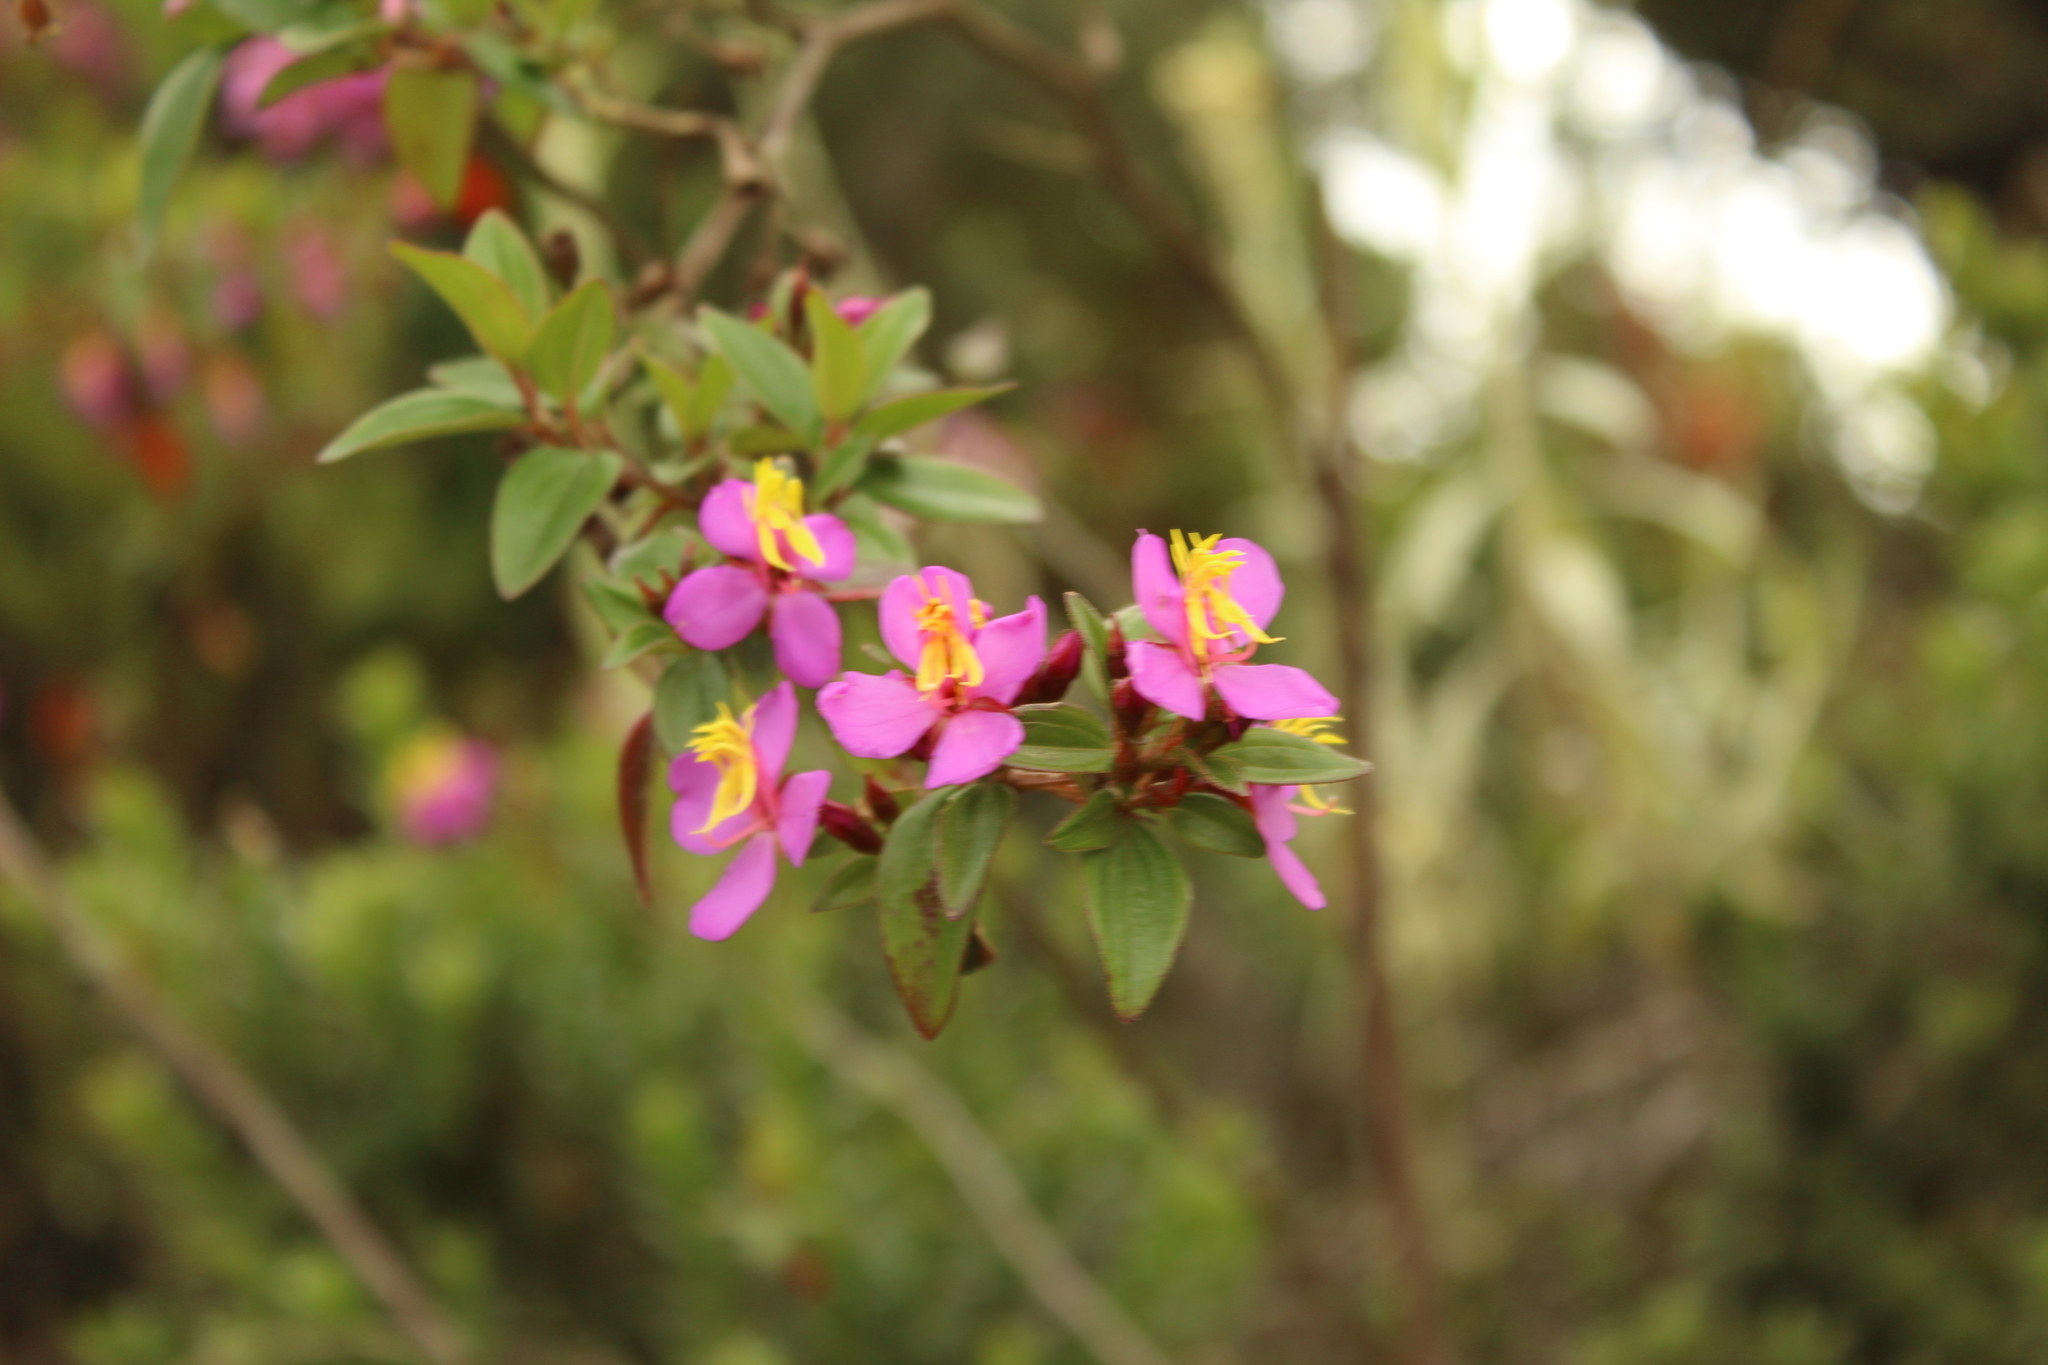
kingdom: Plantae
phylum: Tracheophyta
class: Magnoliopsida
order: Myrtales
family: Melastomataceae
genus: Monochaetum
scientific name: Monochaetum myrtoideum
